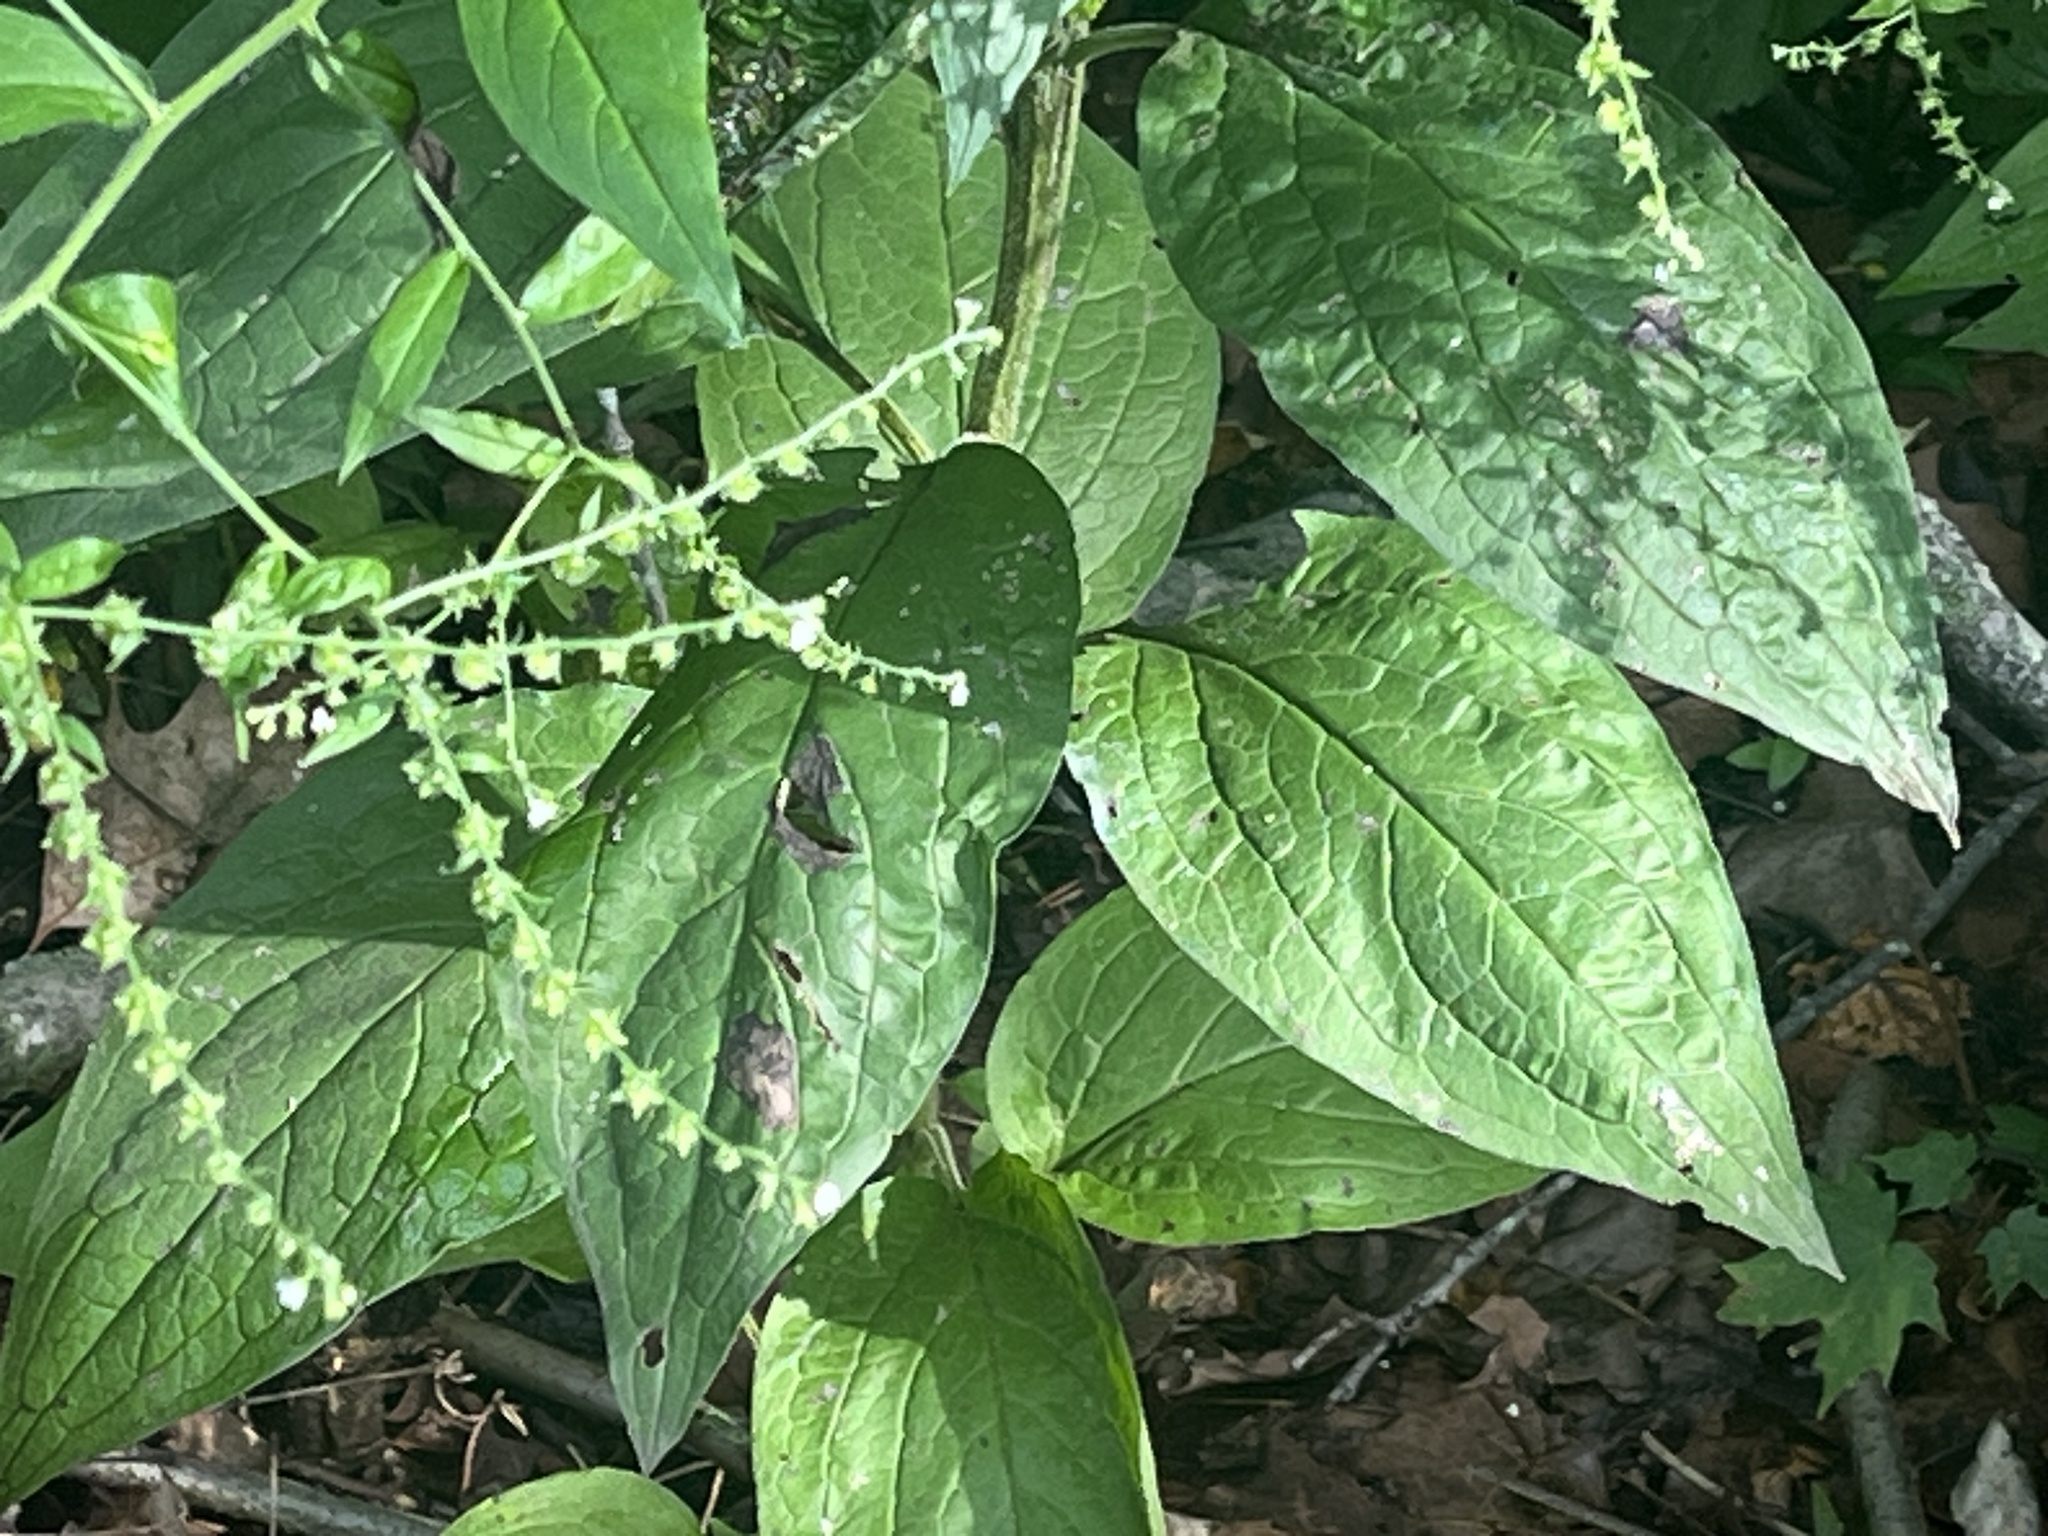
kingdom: Plantae
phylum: Tracheophyta
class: Magnoliopsida
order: Boraginales
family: Boraginaceae
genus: Hackelia
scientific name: Hackelia virginiana
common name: Beggar's-lice
